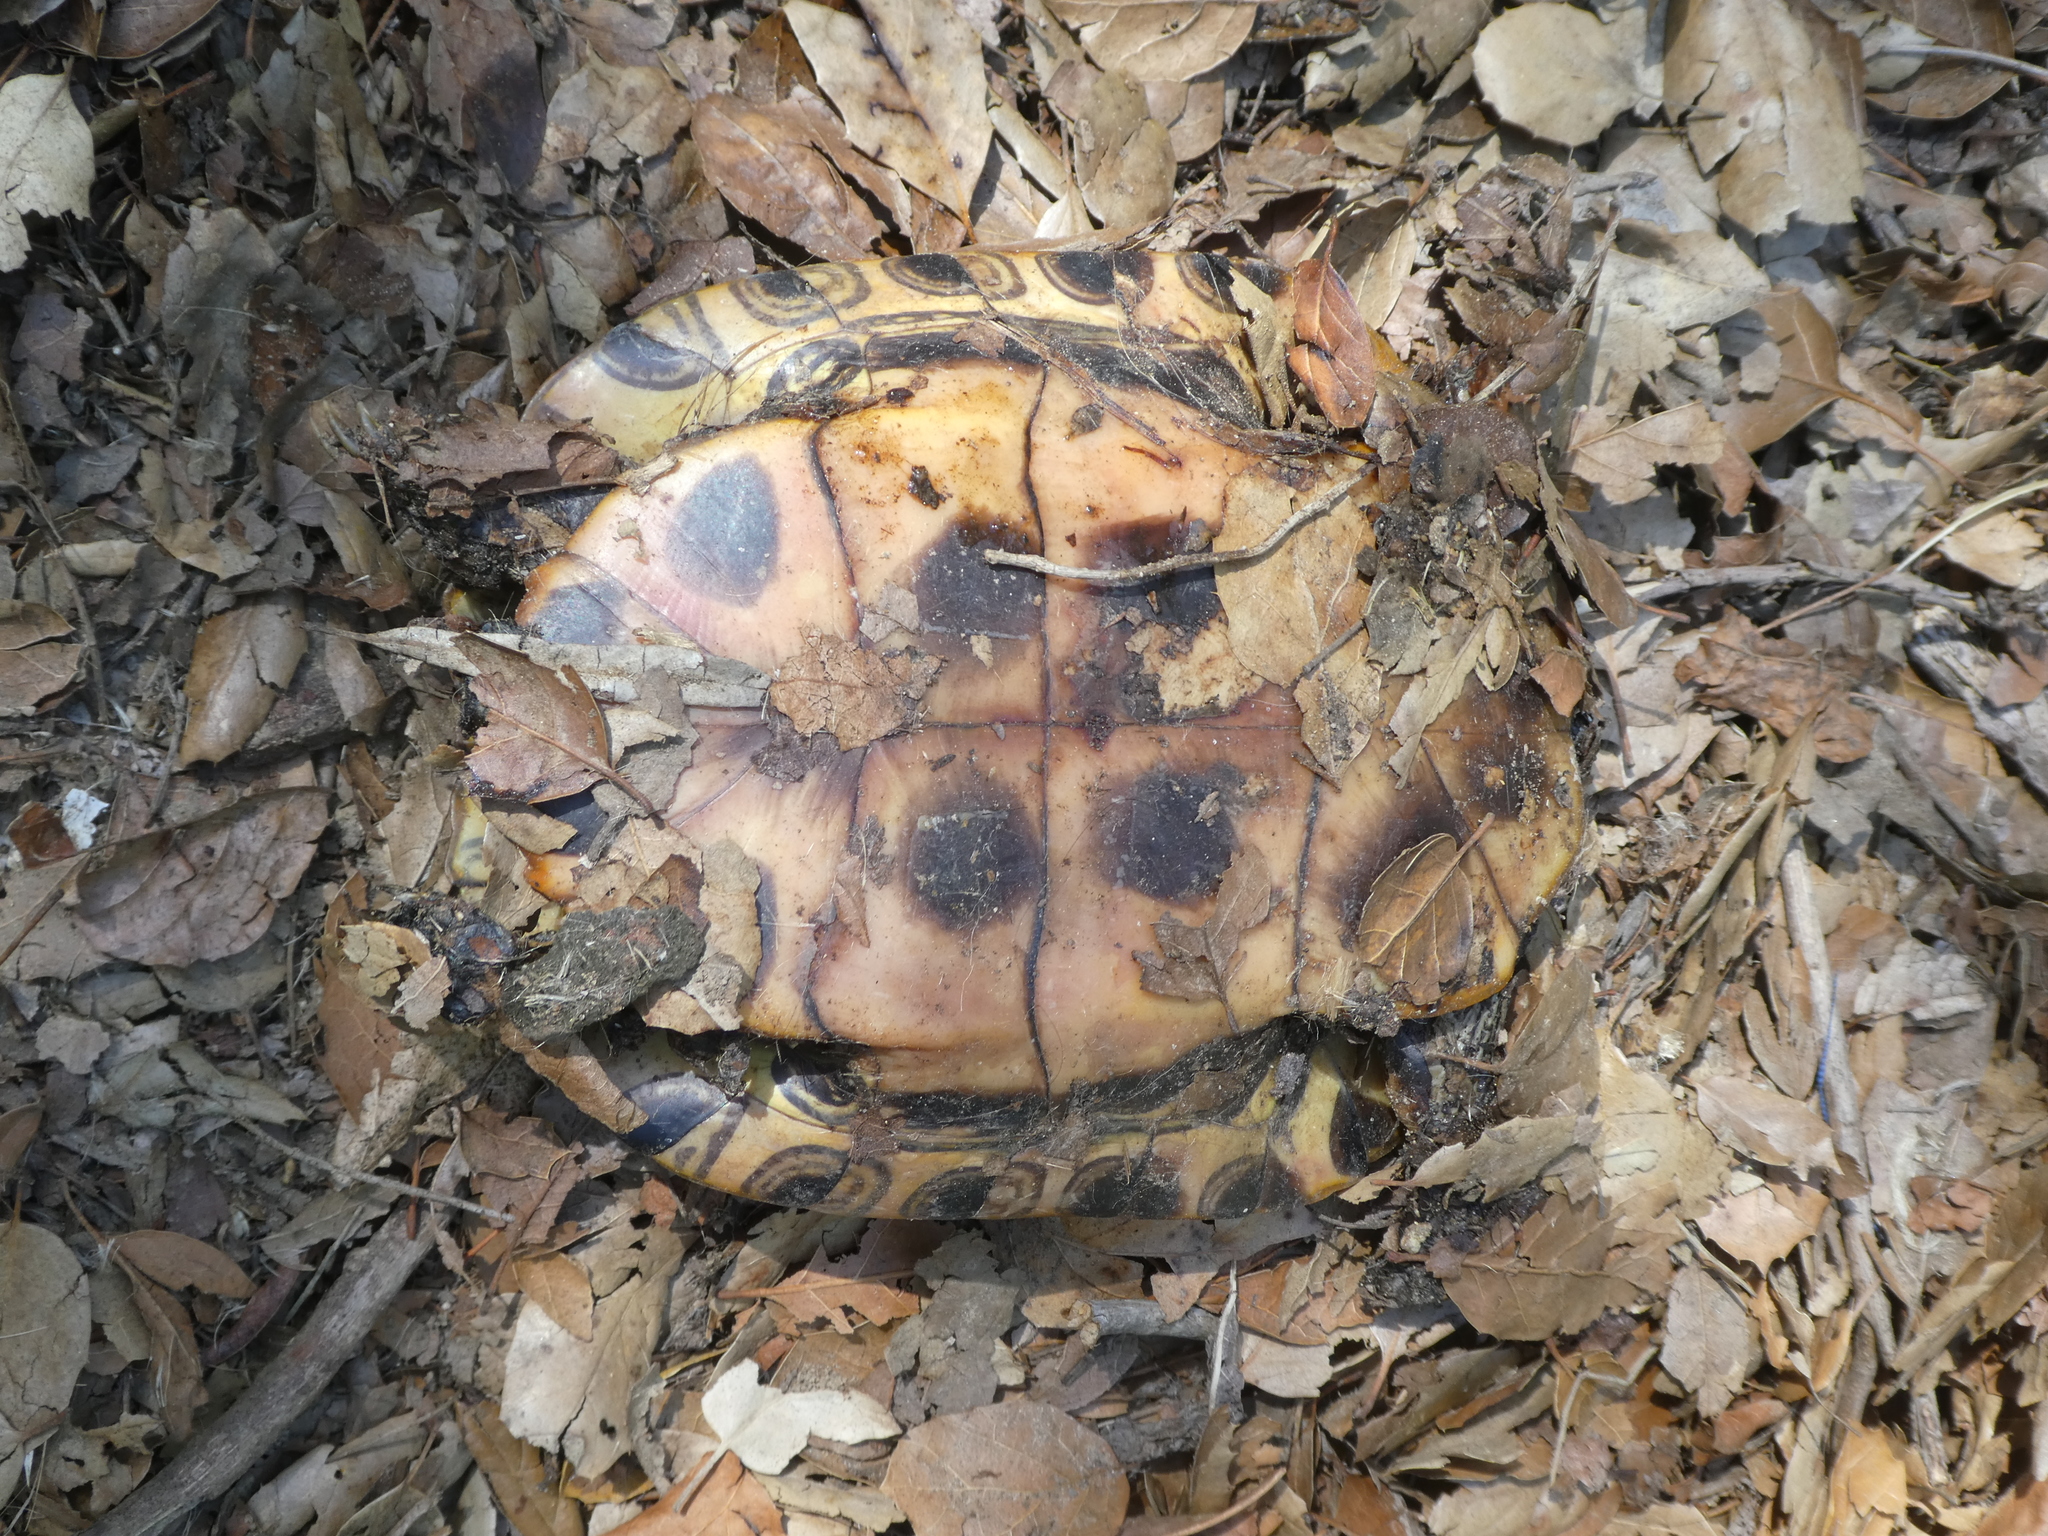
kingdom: Animalia
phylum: Chordata
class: Testudines
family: Emydidae
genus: Trachemys
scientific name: Trachemys scripta
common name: Slider
